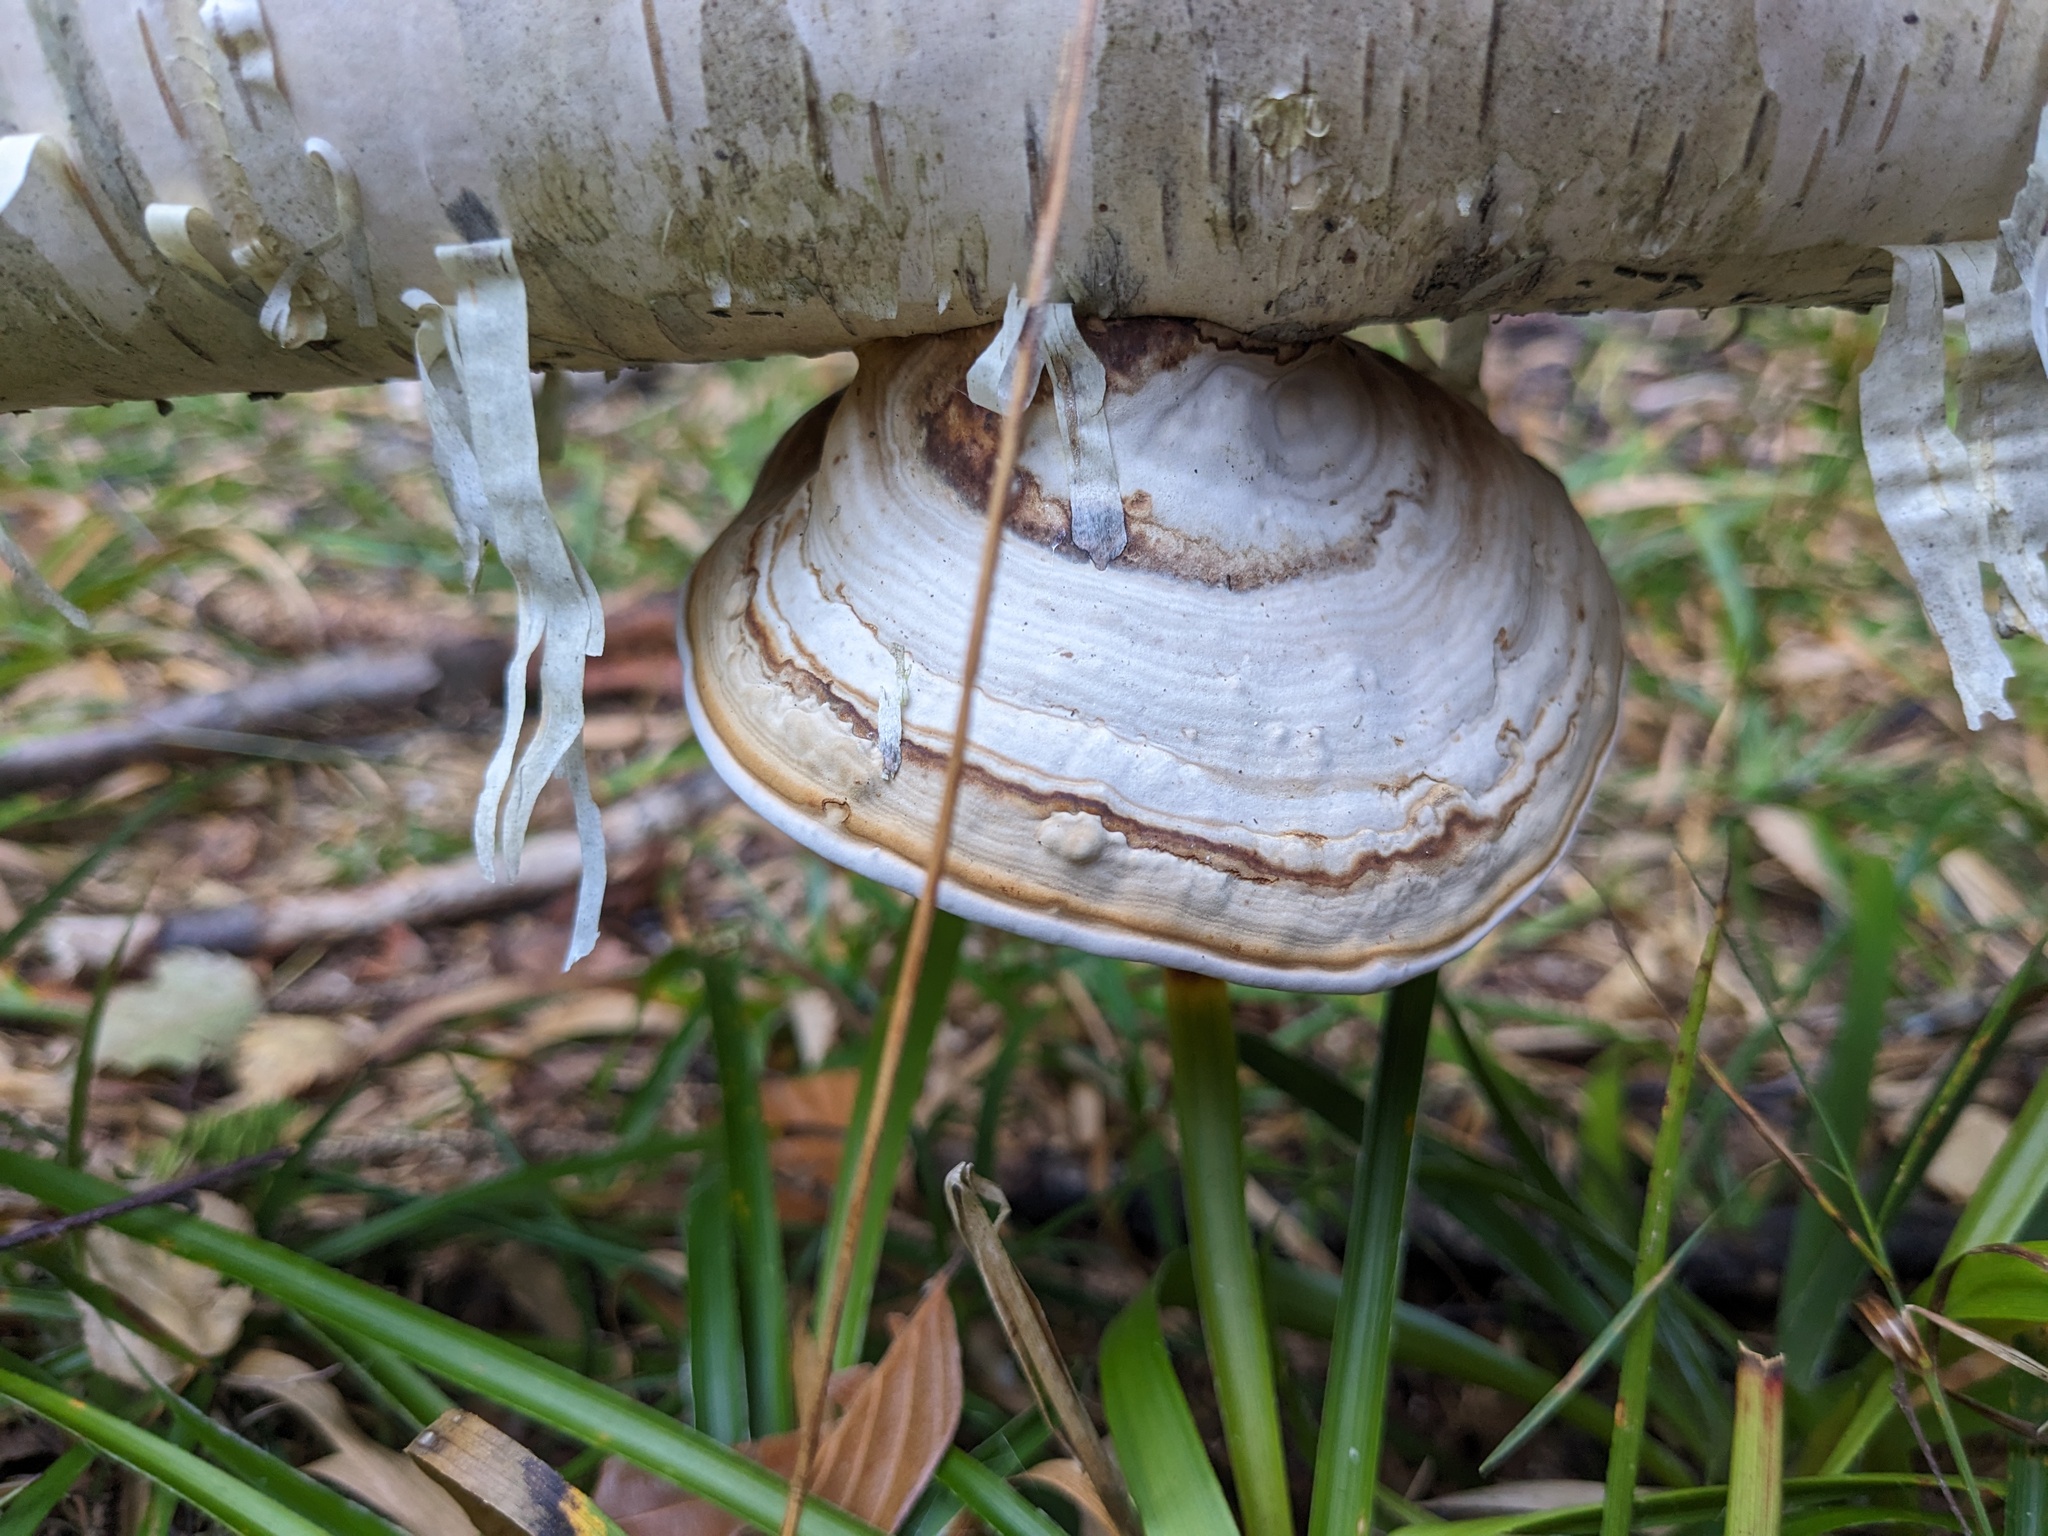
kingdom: Fungi
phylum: Basidiomycota
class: Agaricomycetes
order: Polyporales
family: Polyporaceae
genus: Fomes
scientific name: Fomes fomentarius
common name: Hoof fungus
